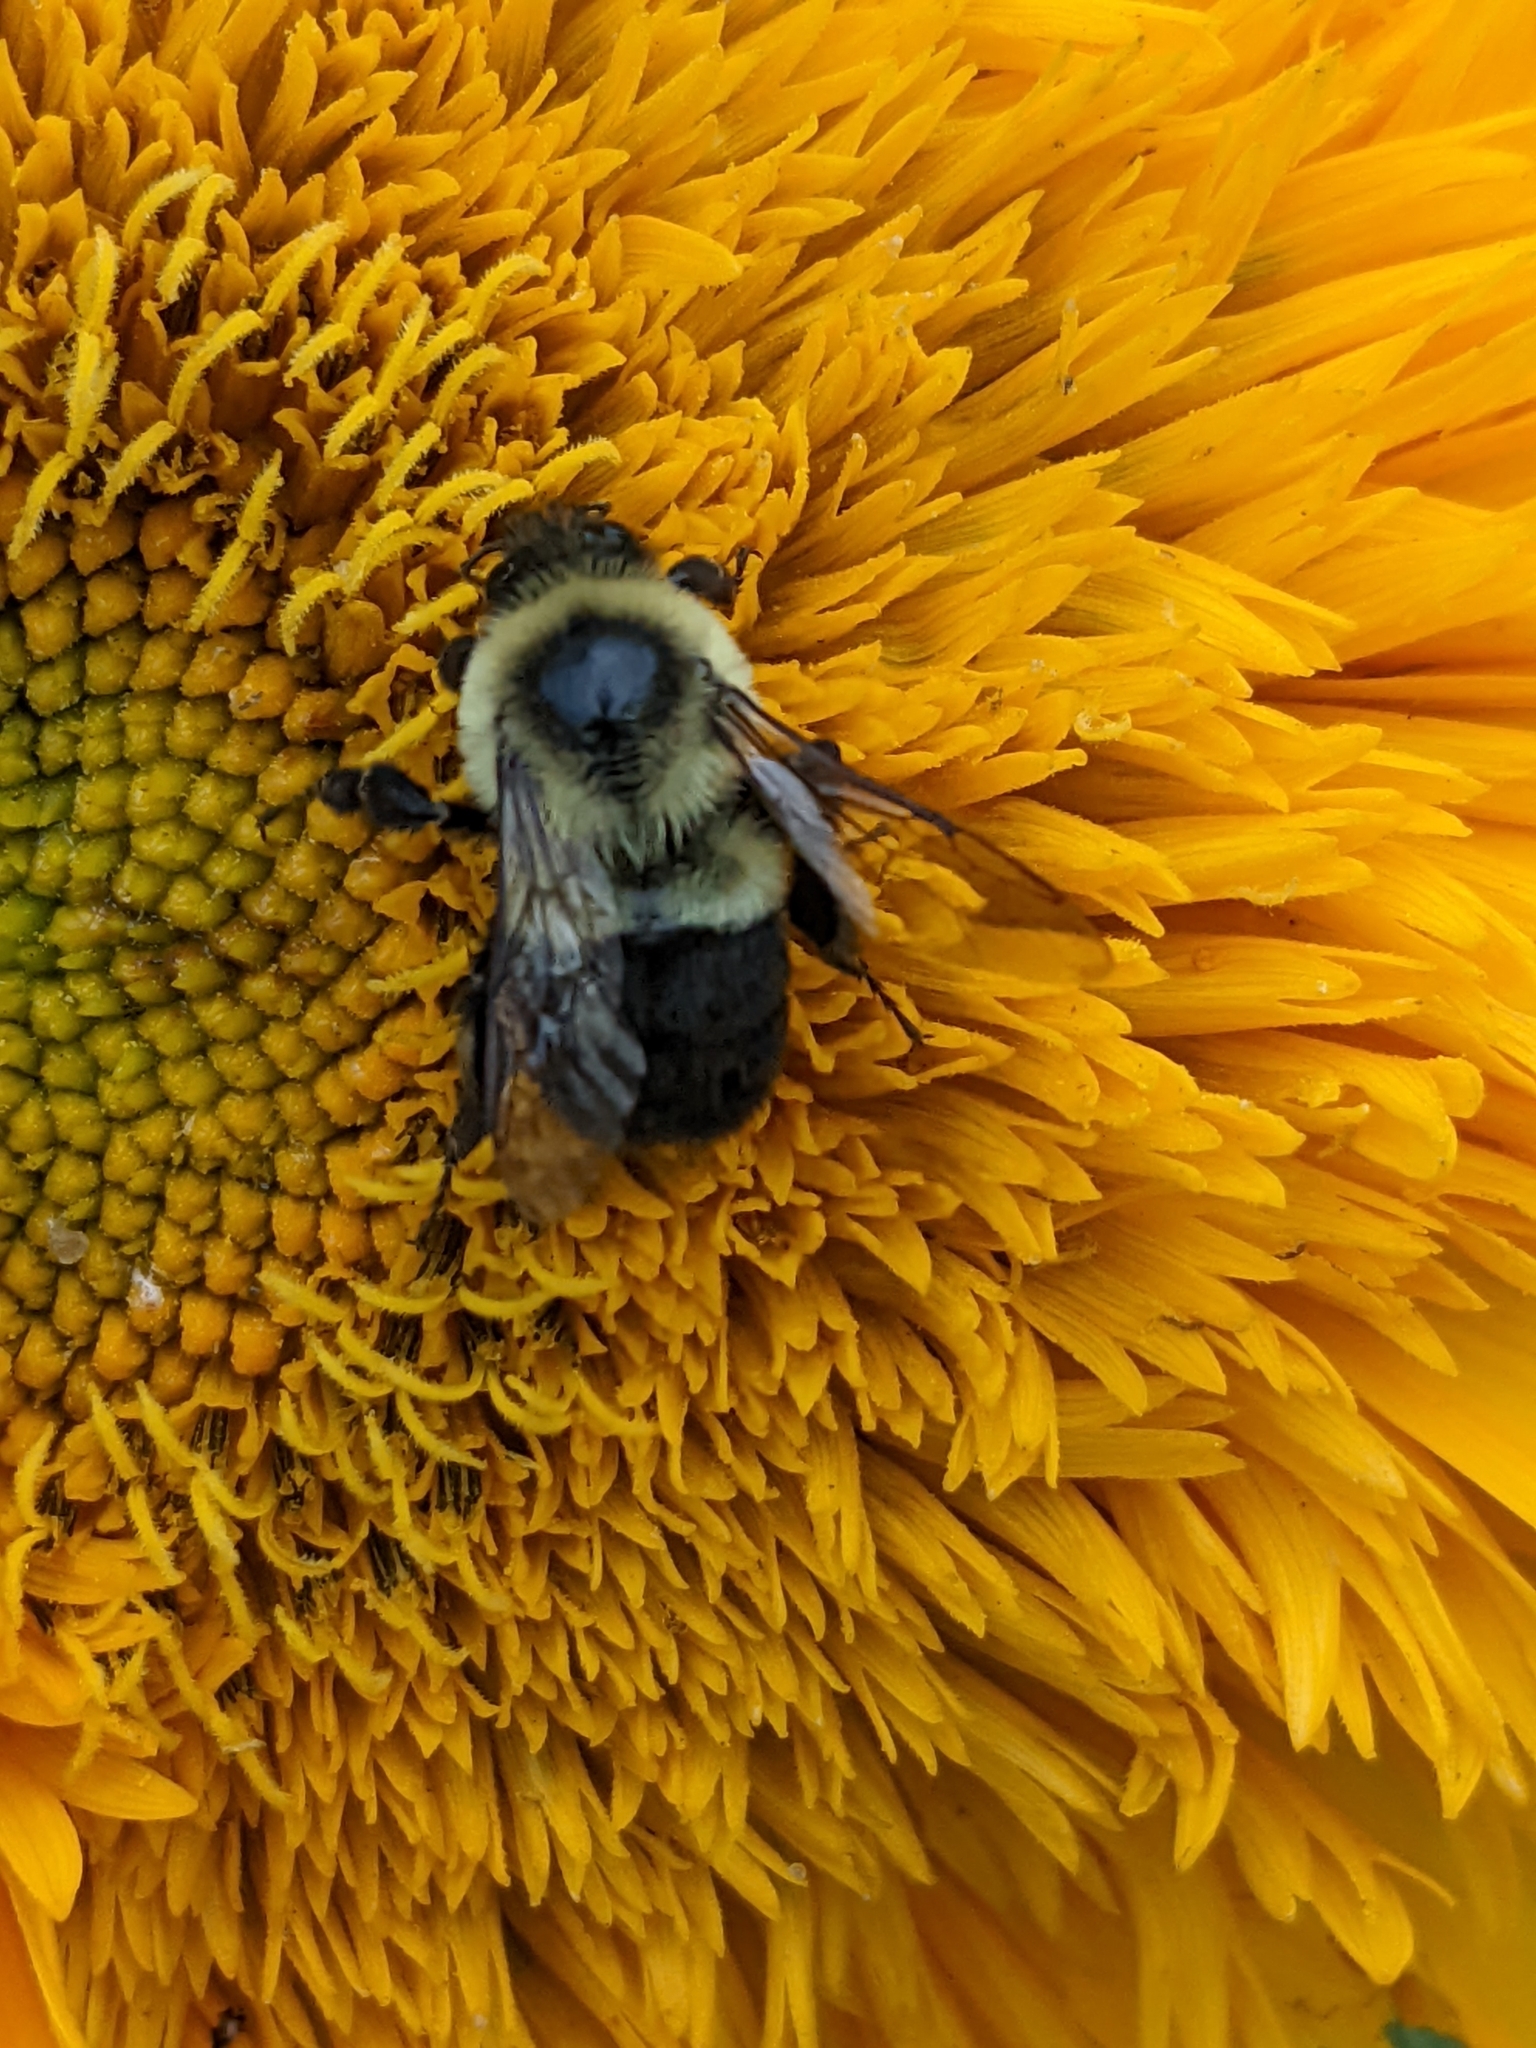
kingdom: Animalia
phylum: Arthropoda
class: Insecta
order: Hymenoptera
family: Apidae
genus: Bombus
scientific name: Bombus impatiens
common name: Common eastern bumble bee
